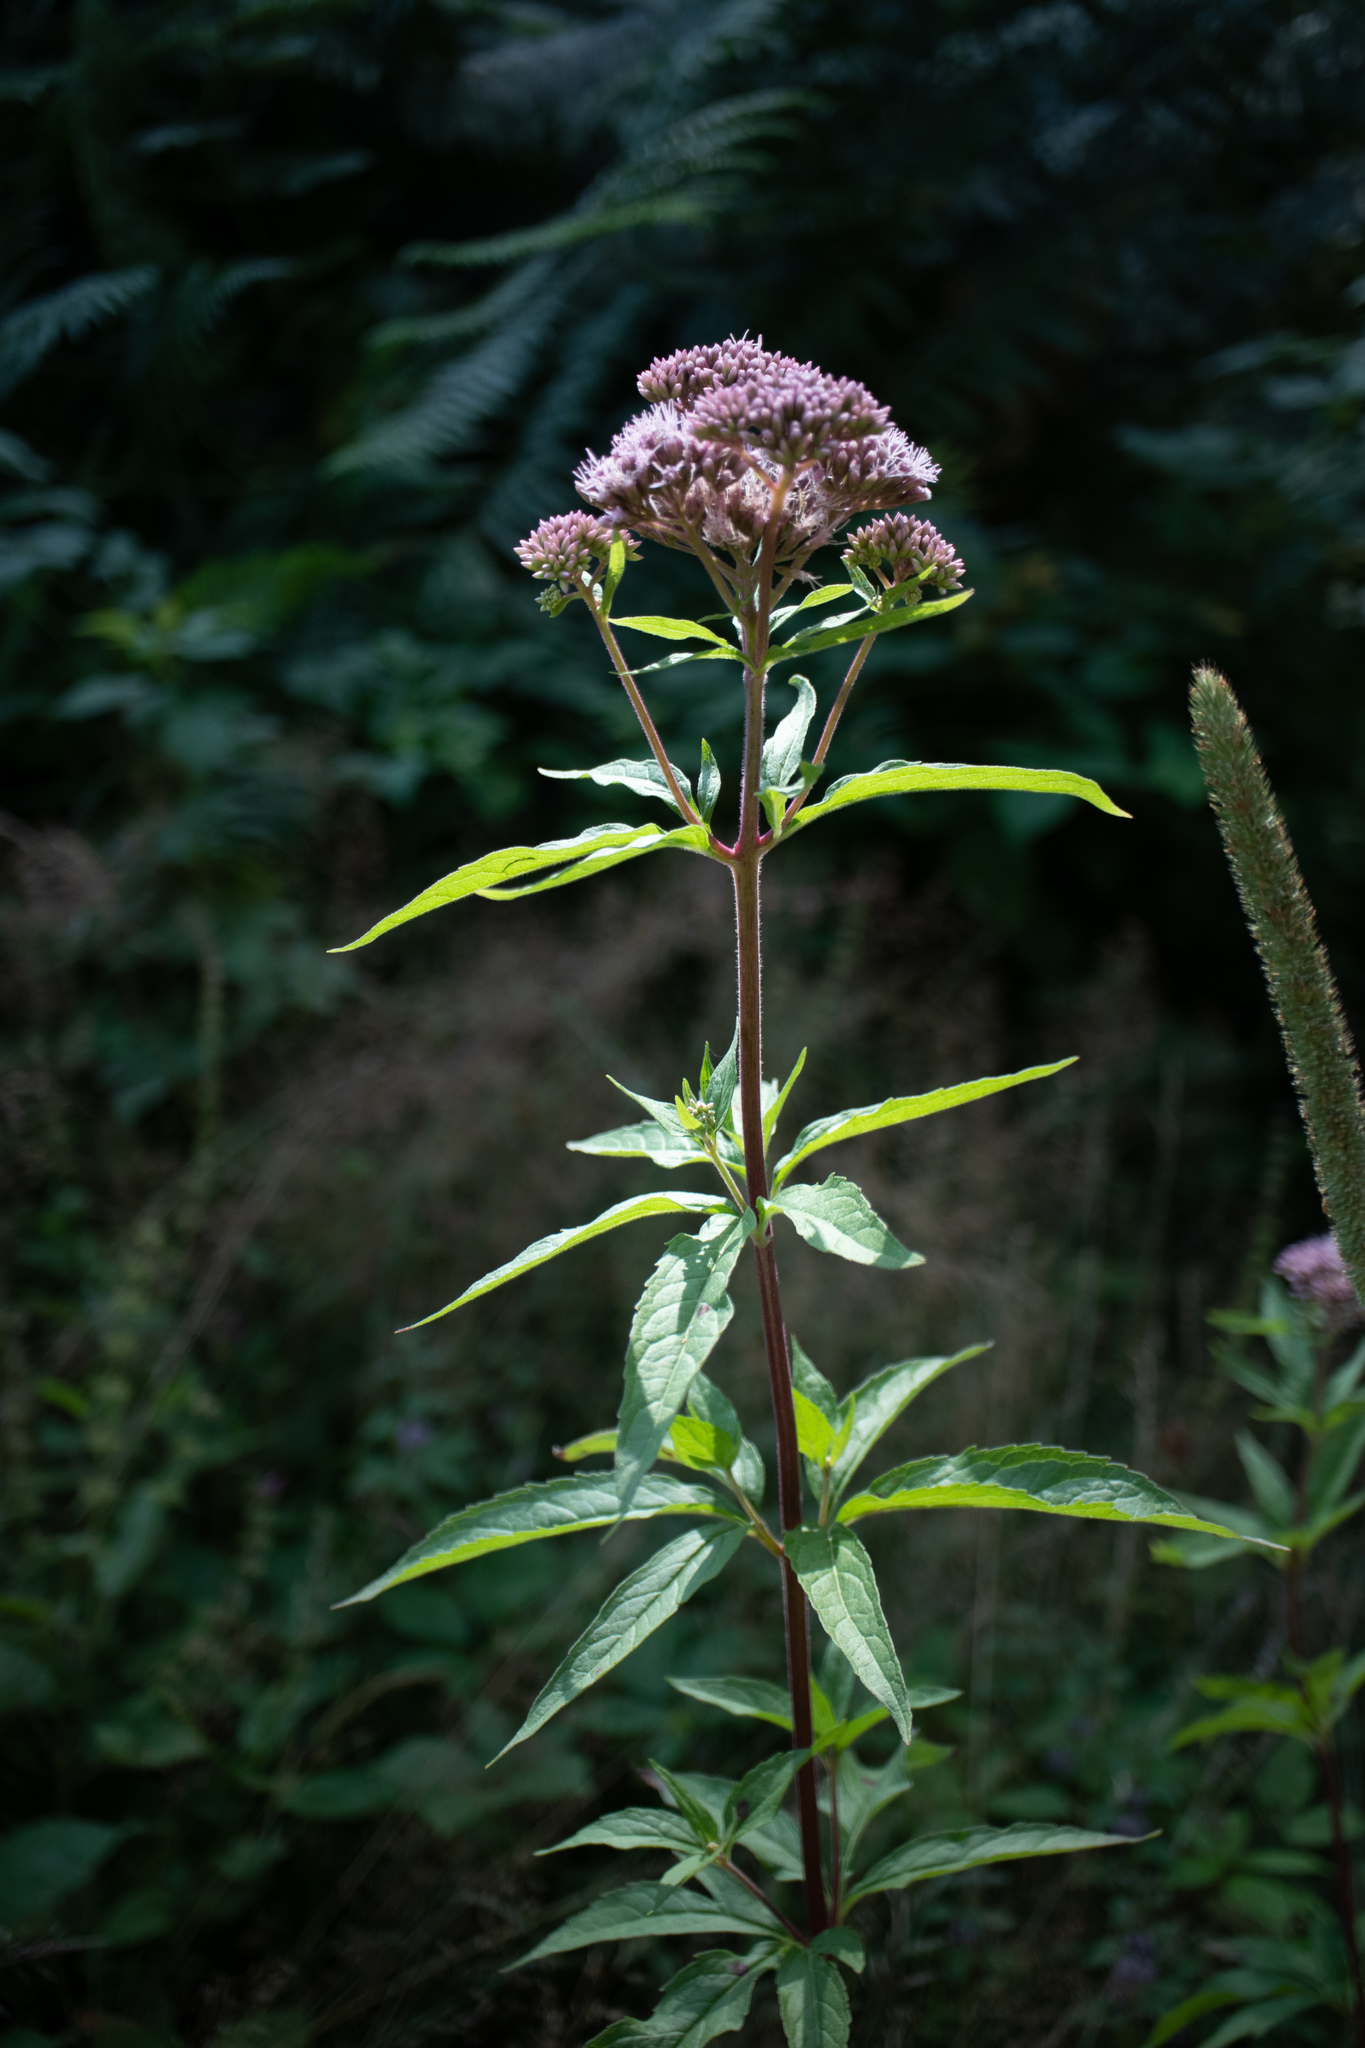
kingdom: Plantae
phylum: Tracheophyta
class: Magnoliopsida
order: Asterales
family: Asteraceae
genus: Eupatorium
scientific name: Eupatorium cannabinum
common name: Hemp-agrimony
